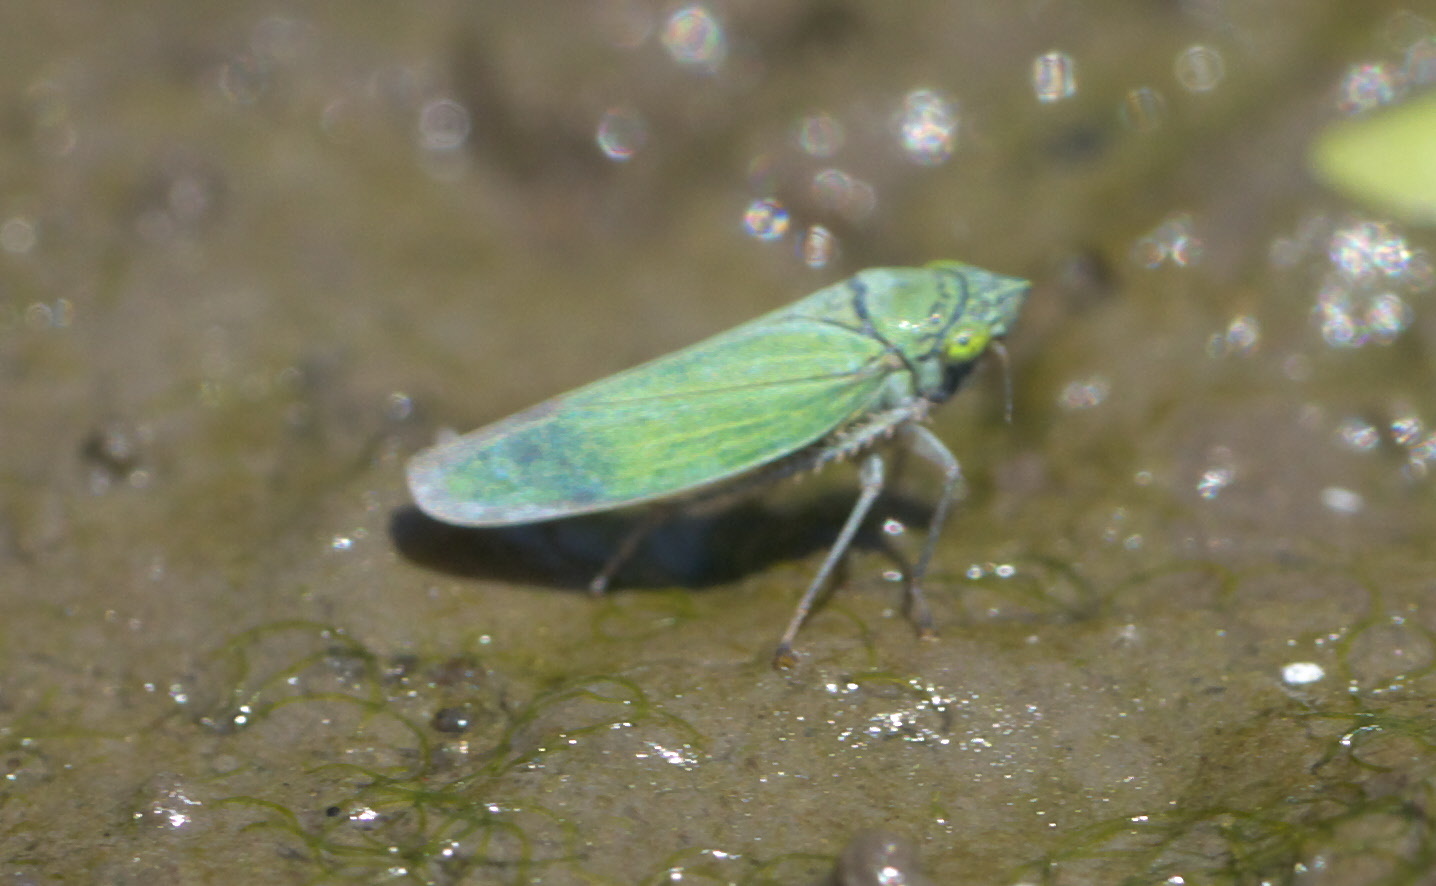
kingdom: Animalia
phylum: Arthropoda
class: Insecta
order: Hemiptera
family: Cicadellidae
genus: Draeculacephala
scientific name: Draeculacephala inscripta
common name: Leafhopper
